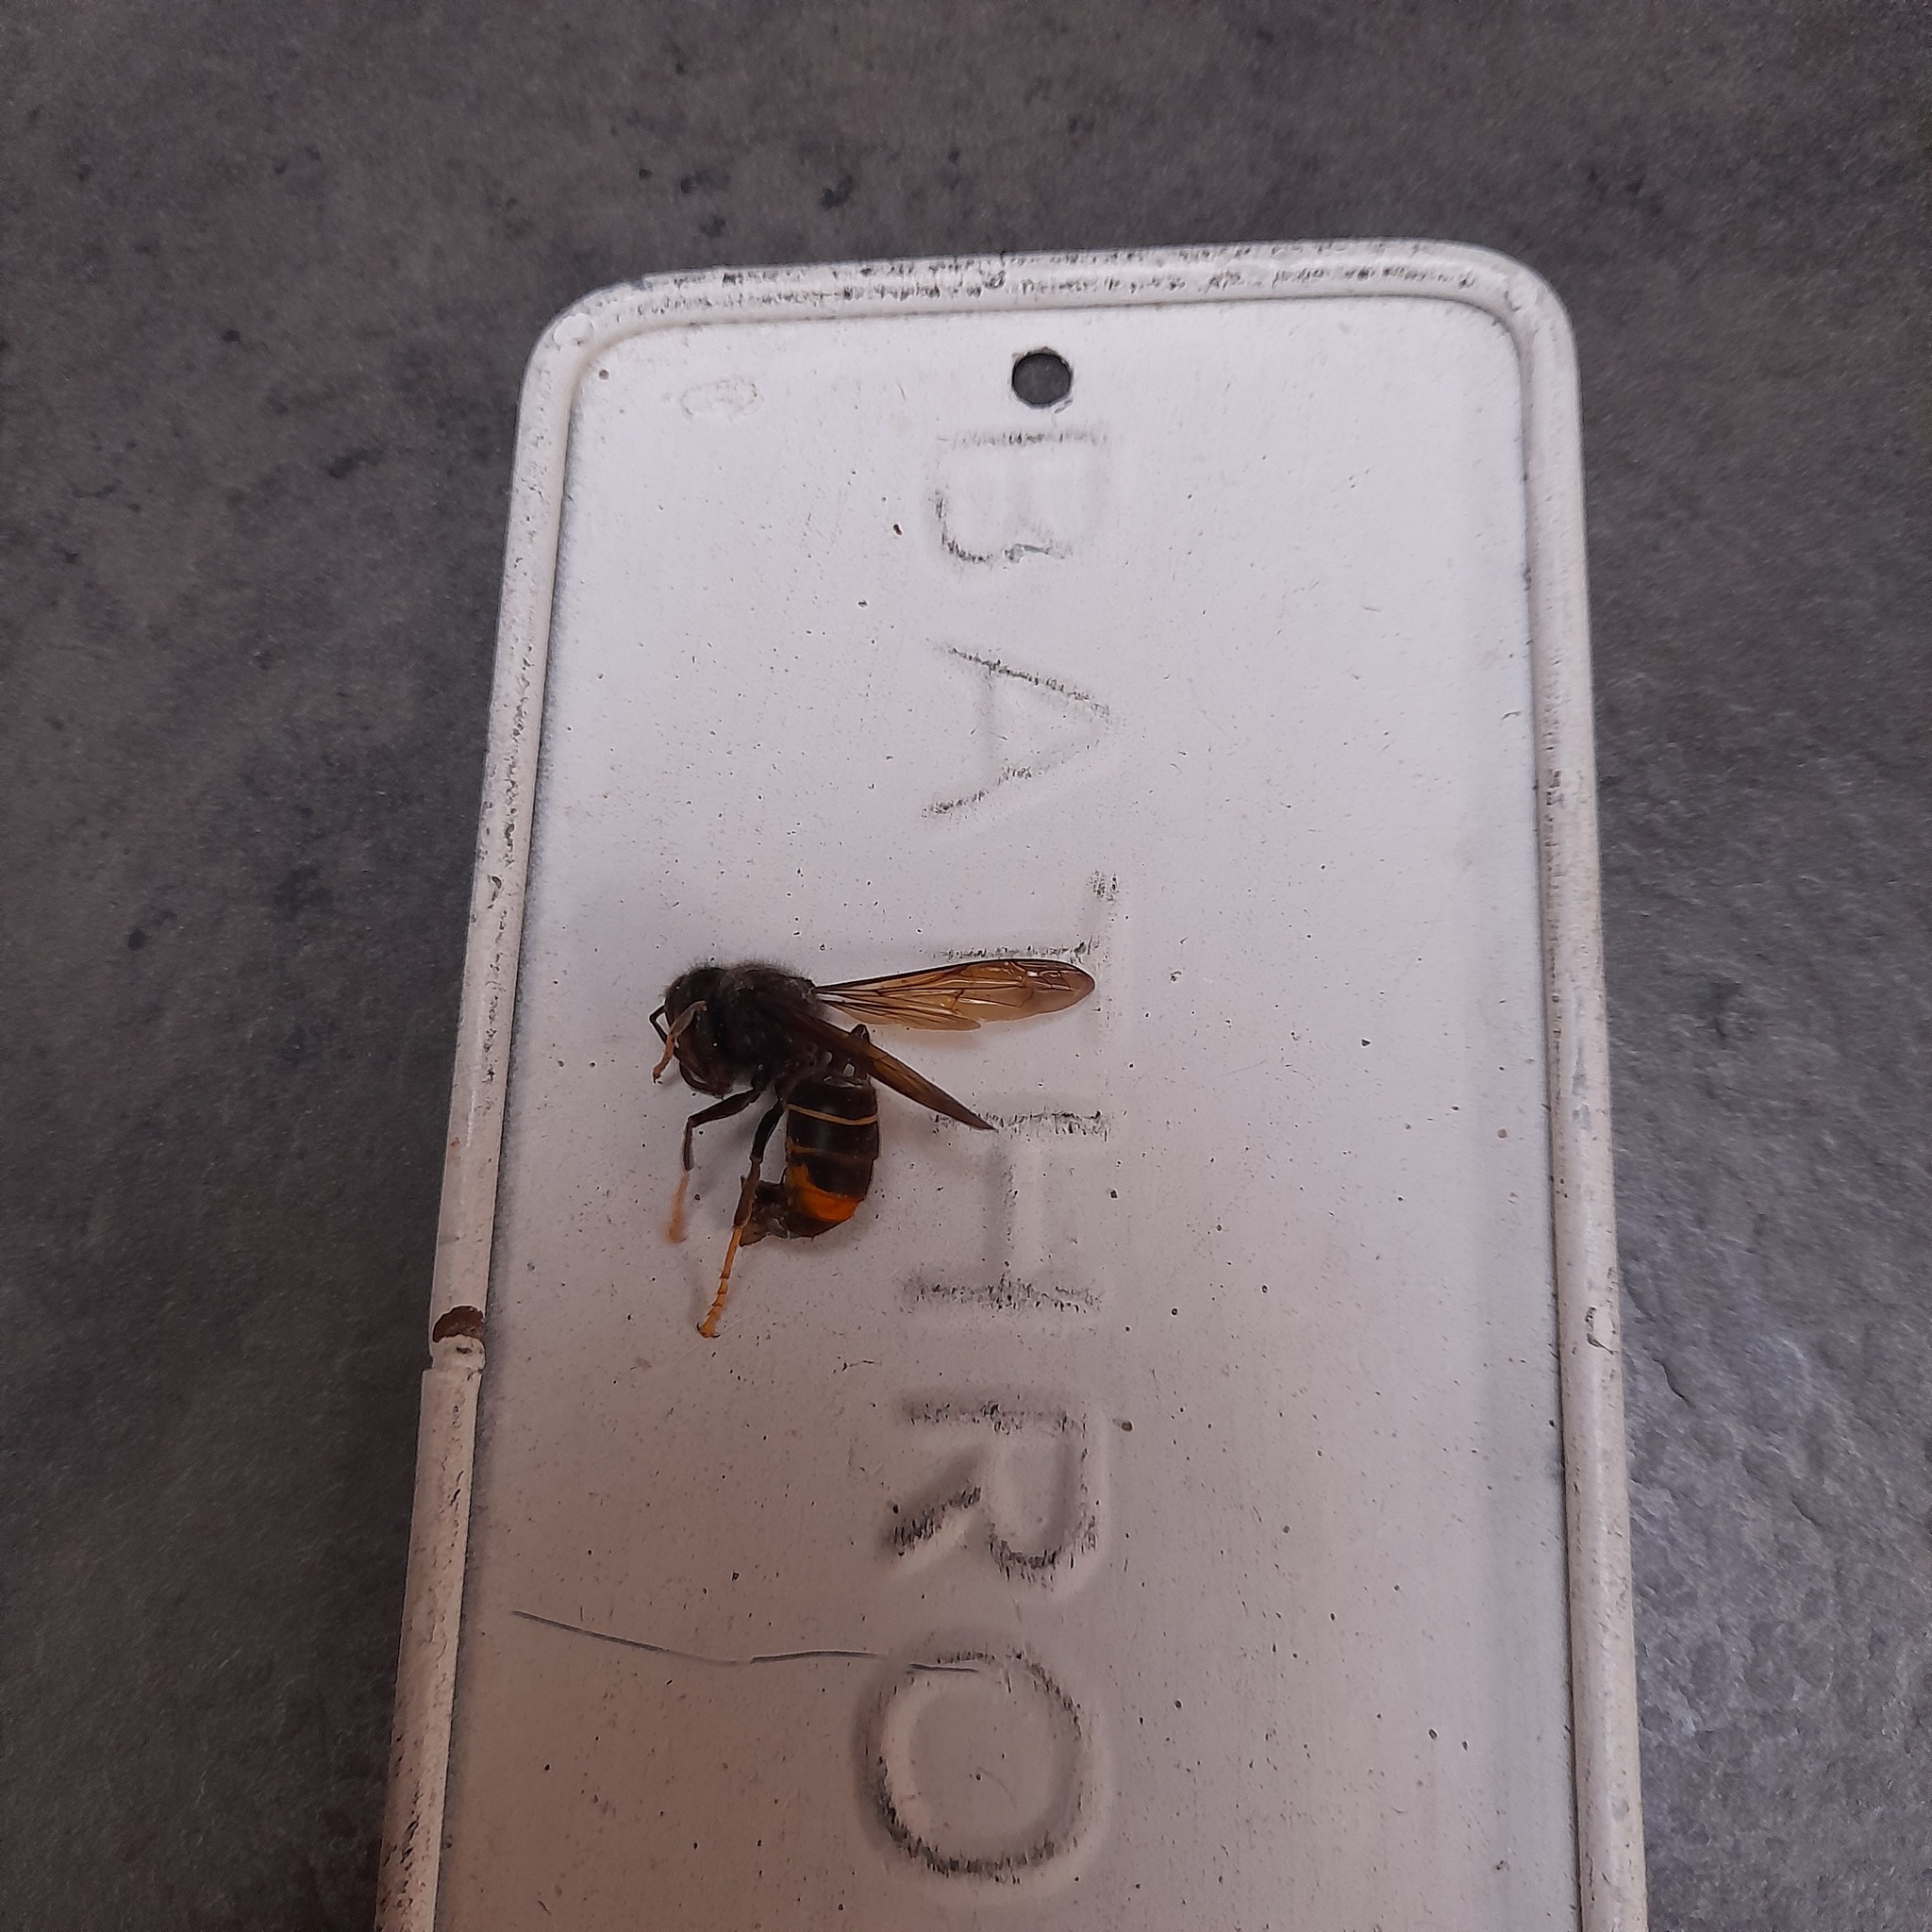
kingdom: Animalia
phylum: Arthropoda
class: Insecta
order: Hymenoptera
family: Vespidae
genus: Vespa
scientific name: Vespa velutina
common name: Asian hornet
